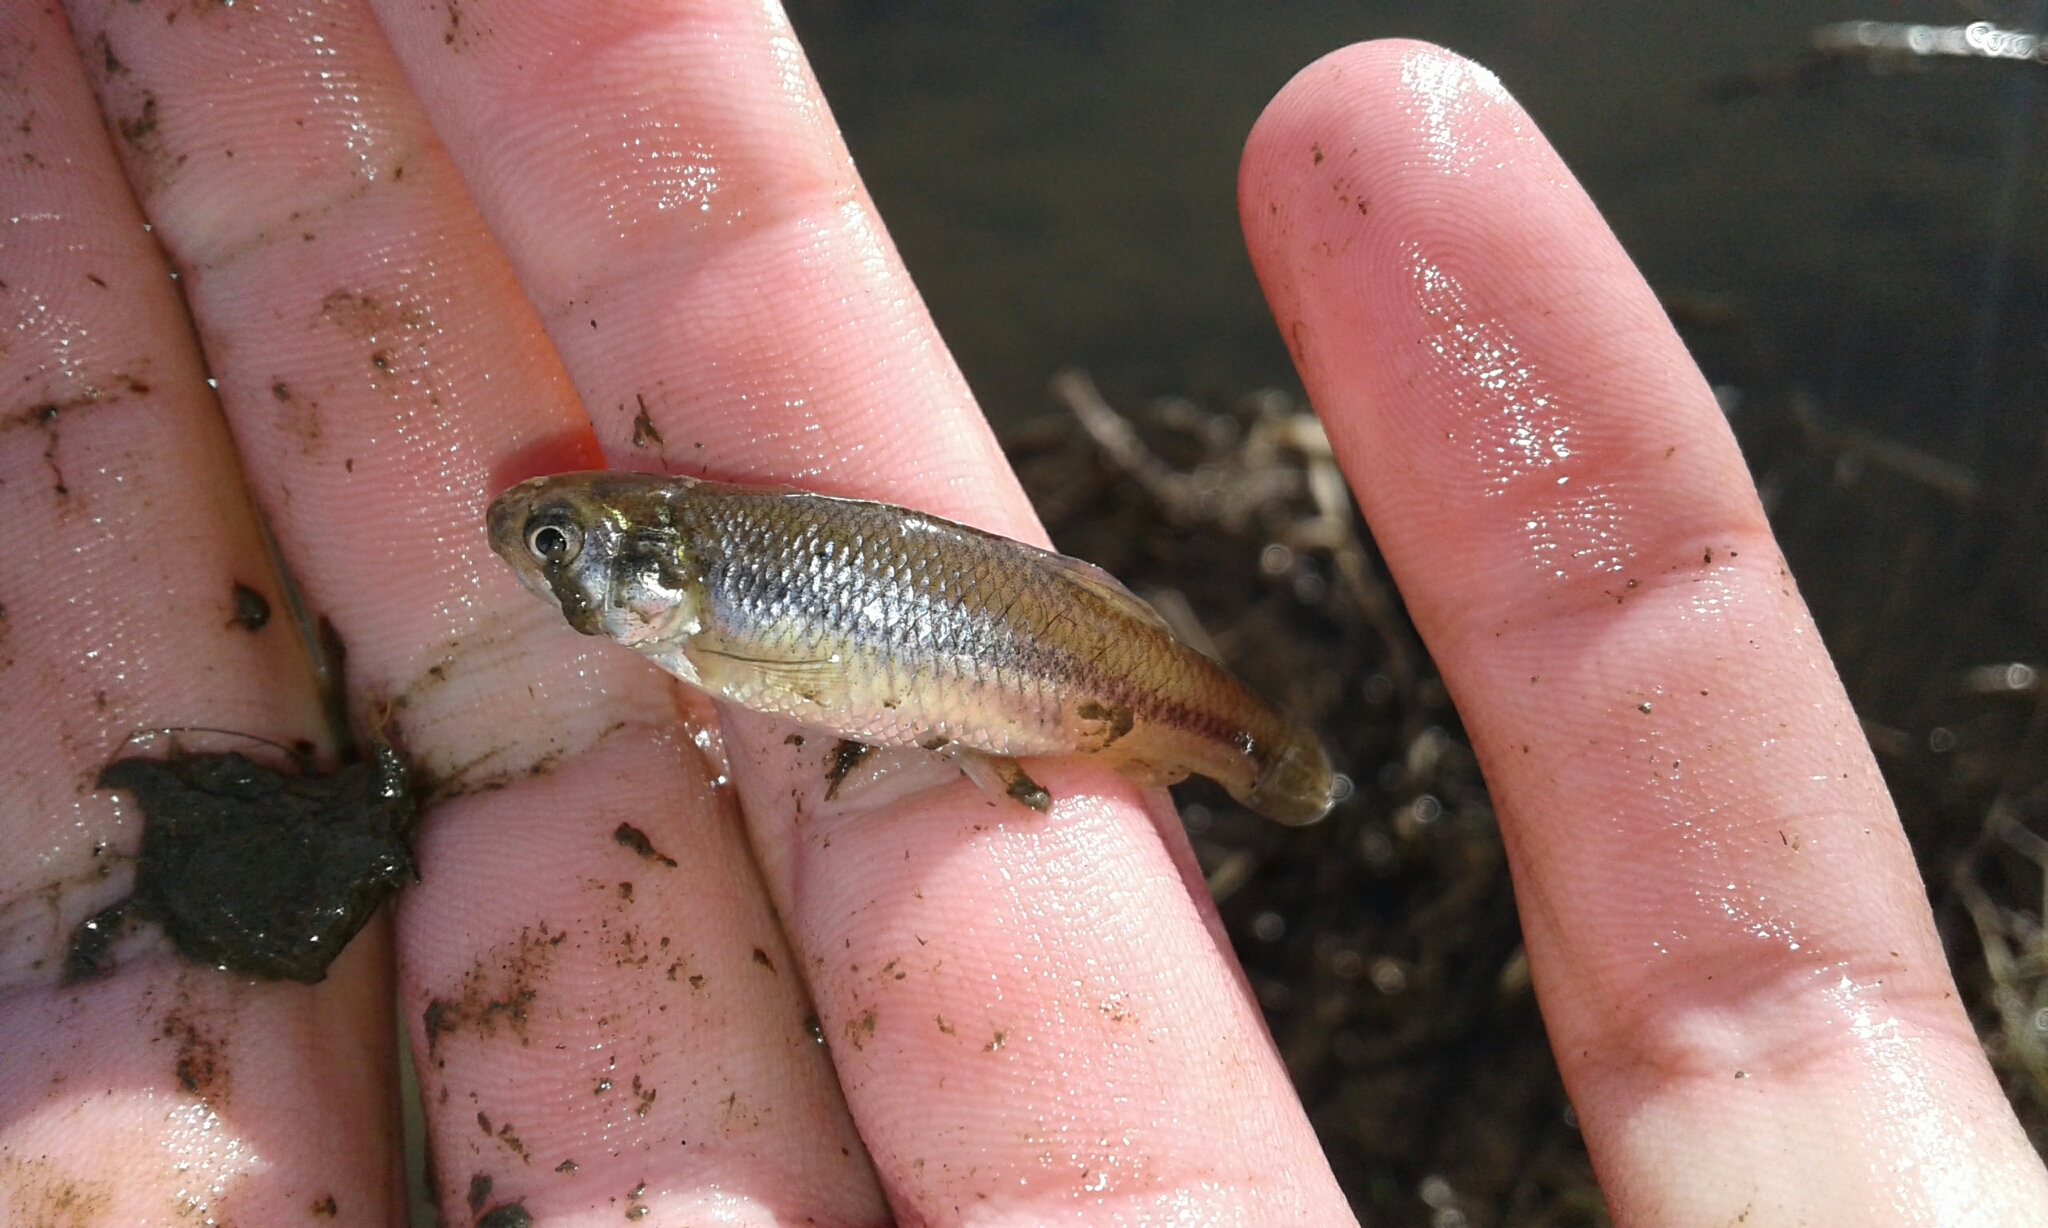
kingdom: Animalia
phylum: Chordata
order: Cypriniformes
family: Cyprinidae
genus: Pimephales
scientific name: Pimephales promelas
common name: Fathead minnow
